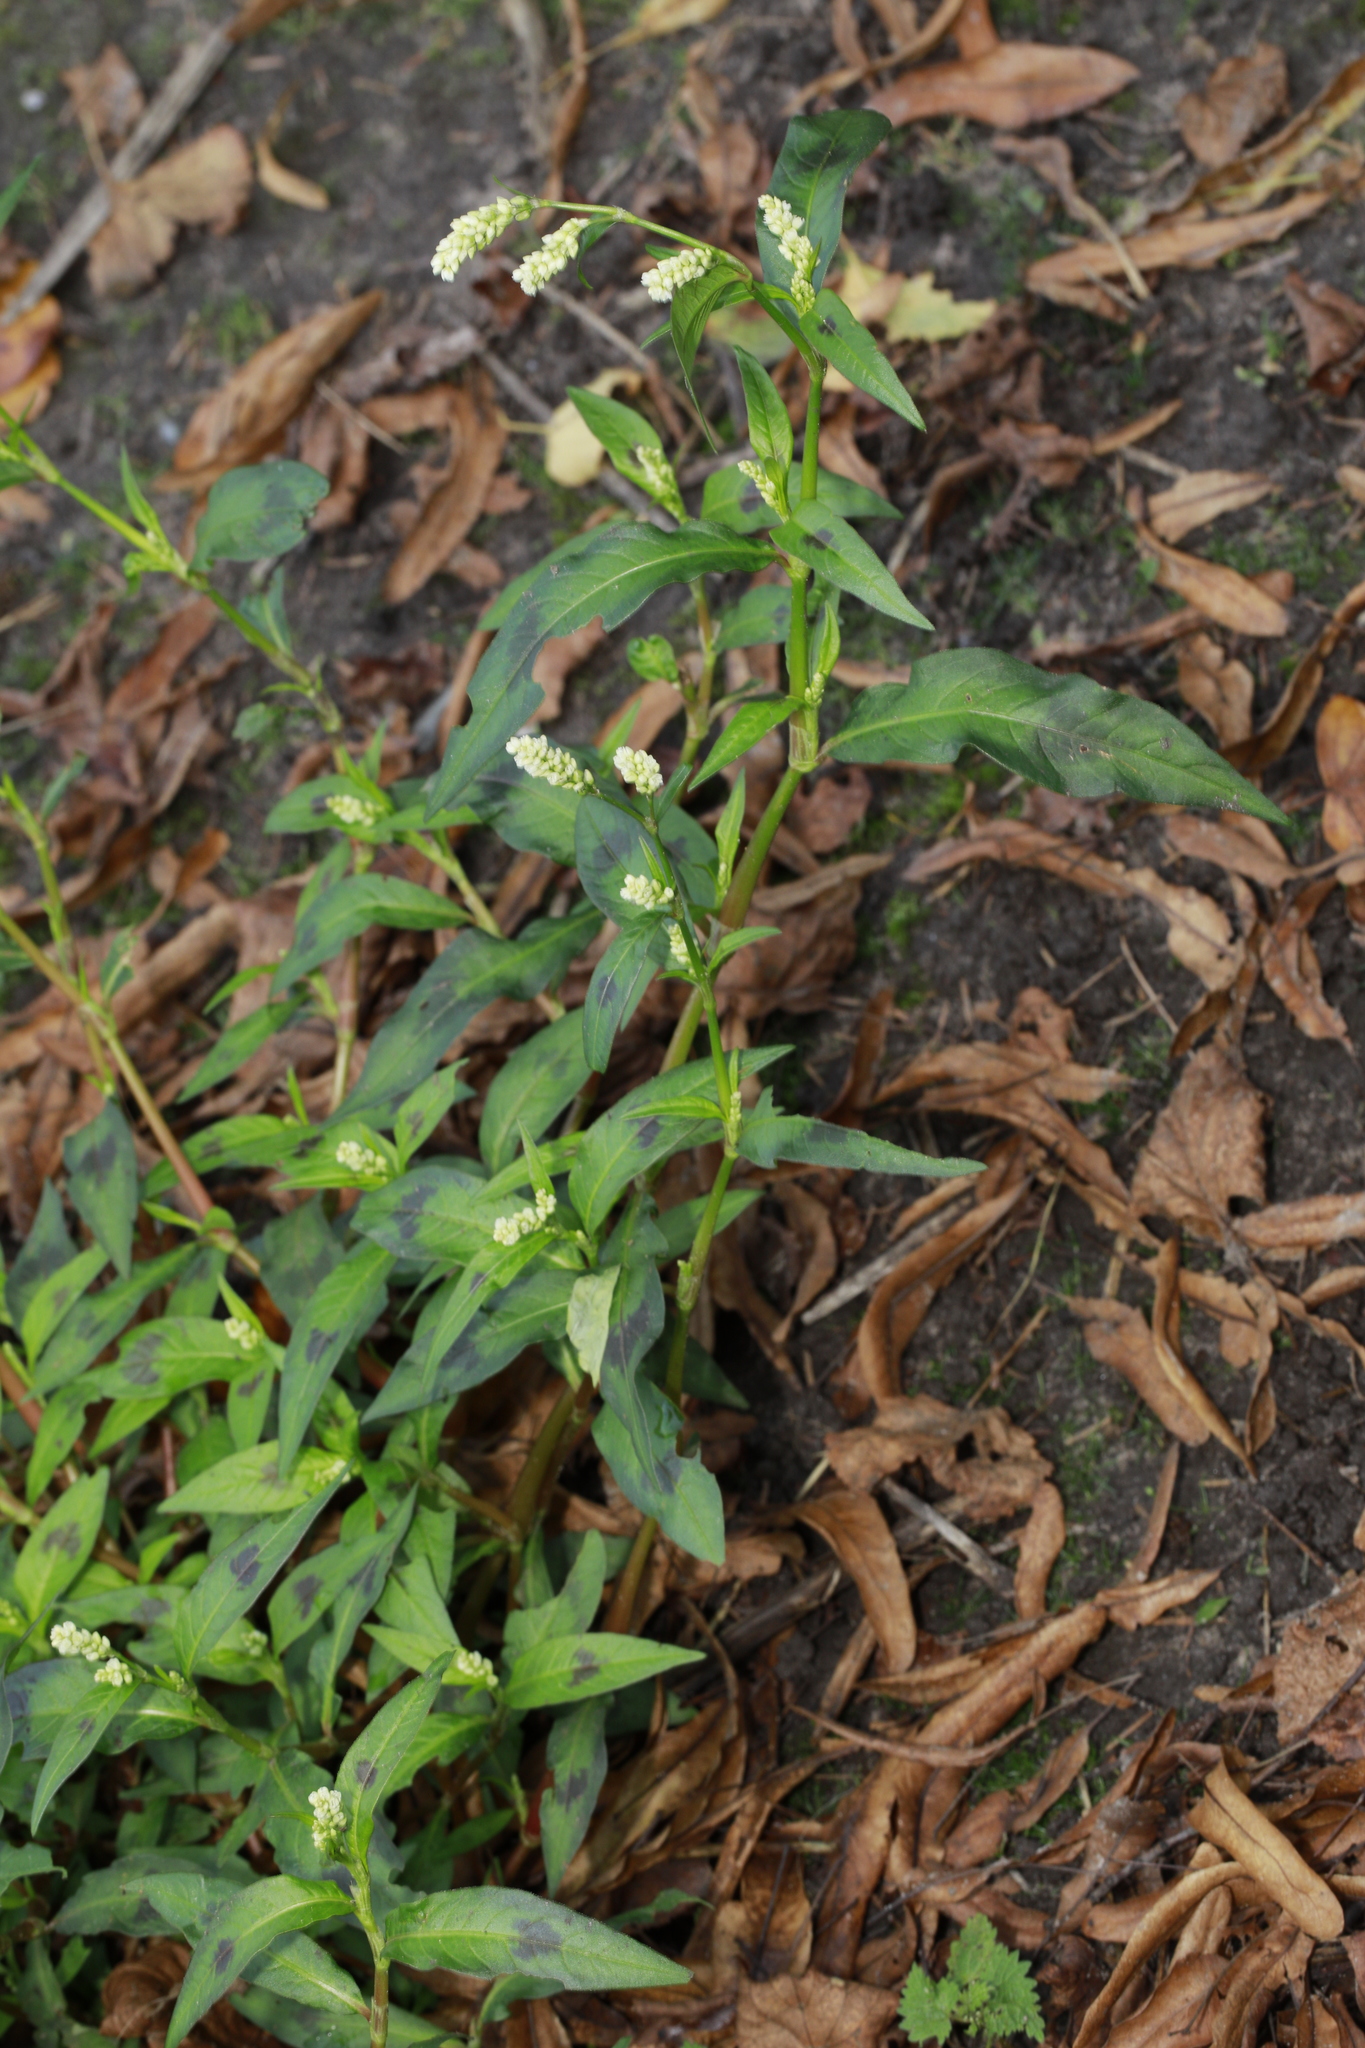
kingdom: Plantae
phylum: Tracheophyta
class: Magnoliopsida
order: Caryophyllales
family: Polygonaceae
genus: Persicaria
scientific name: Persicaria lapathifolia
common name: Curlytop knotweed
